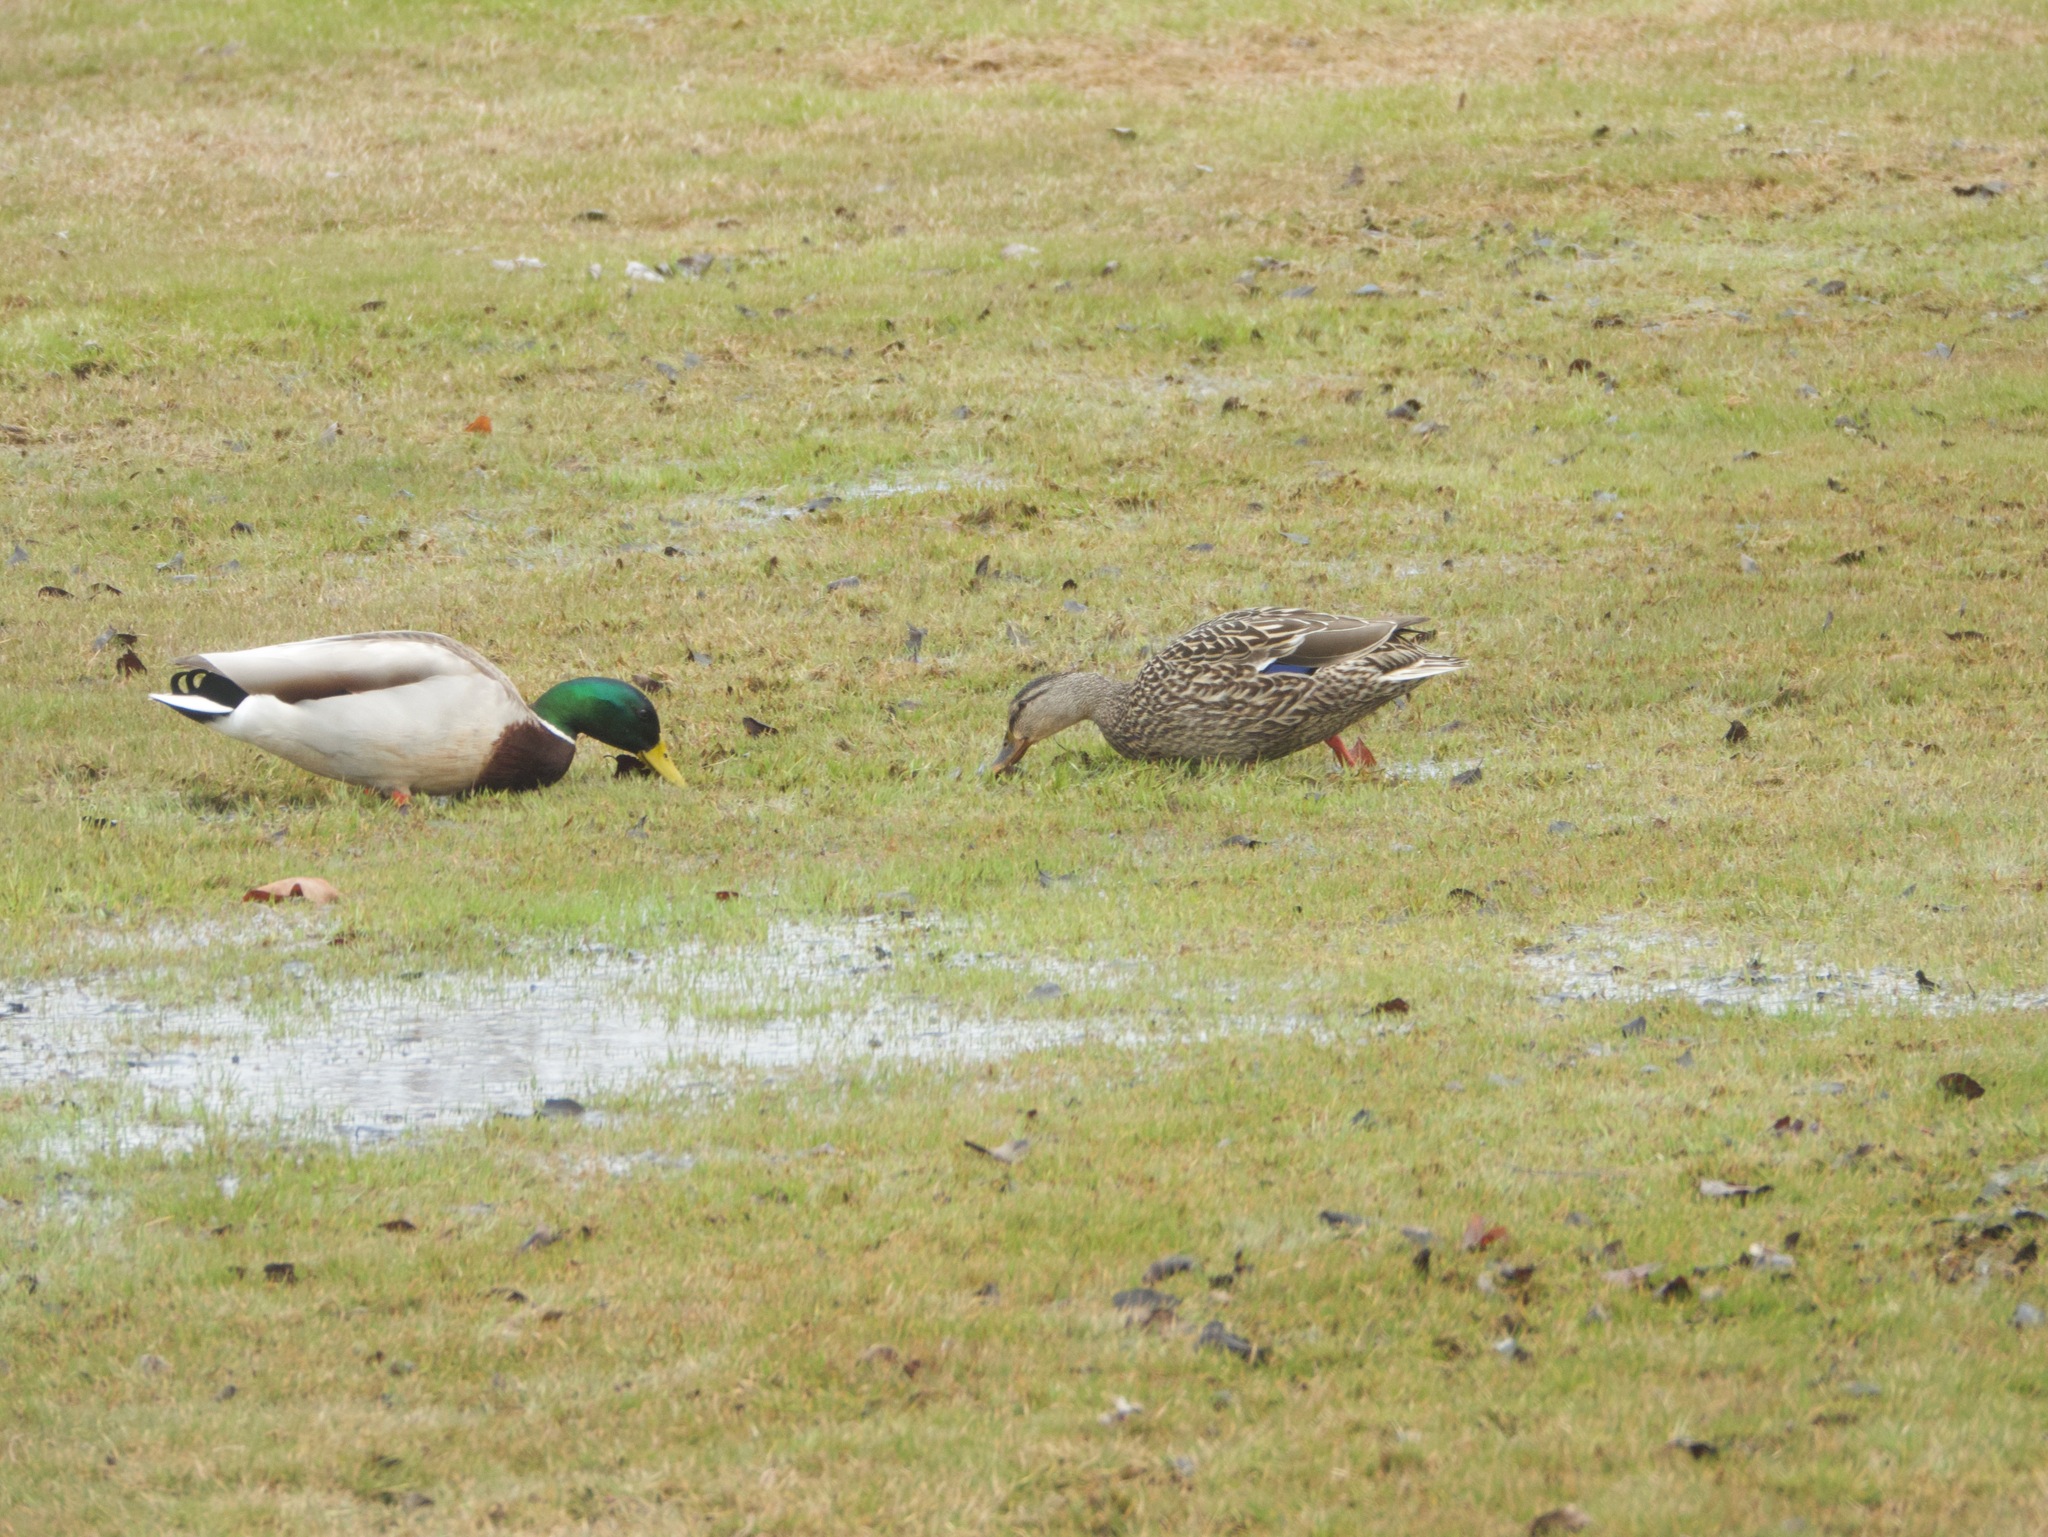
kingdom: Animalia
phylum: Chordata
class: Aves
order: Anseriformes
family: Anatidae
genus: Anas
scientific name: Anas platyrhynchos
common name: Mallard
